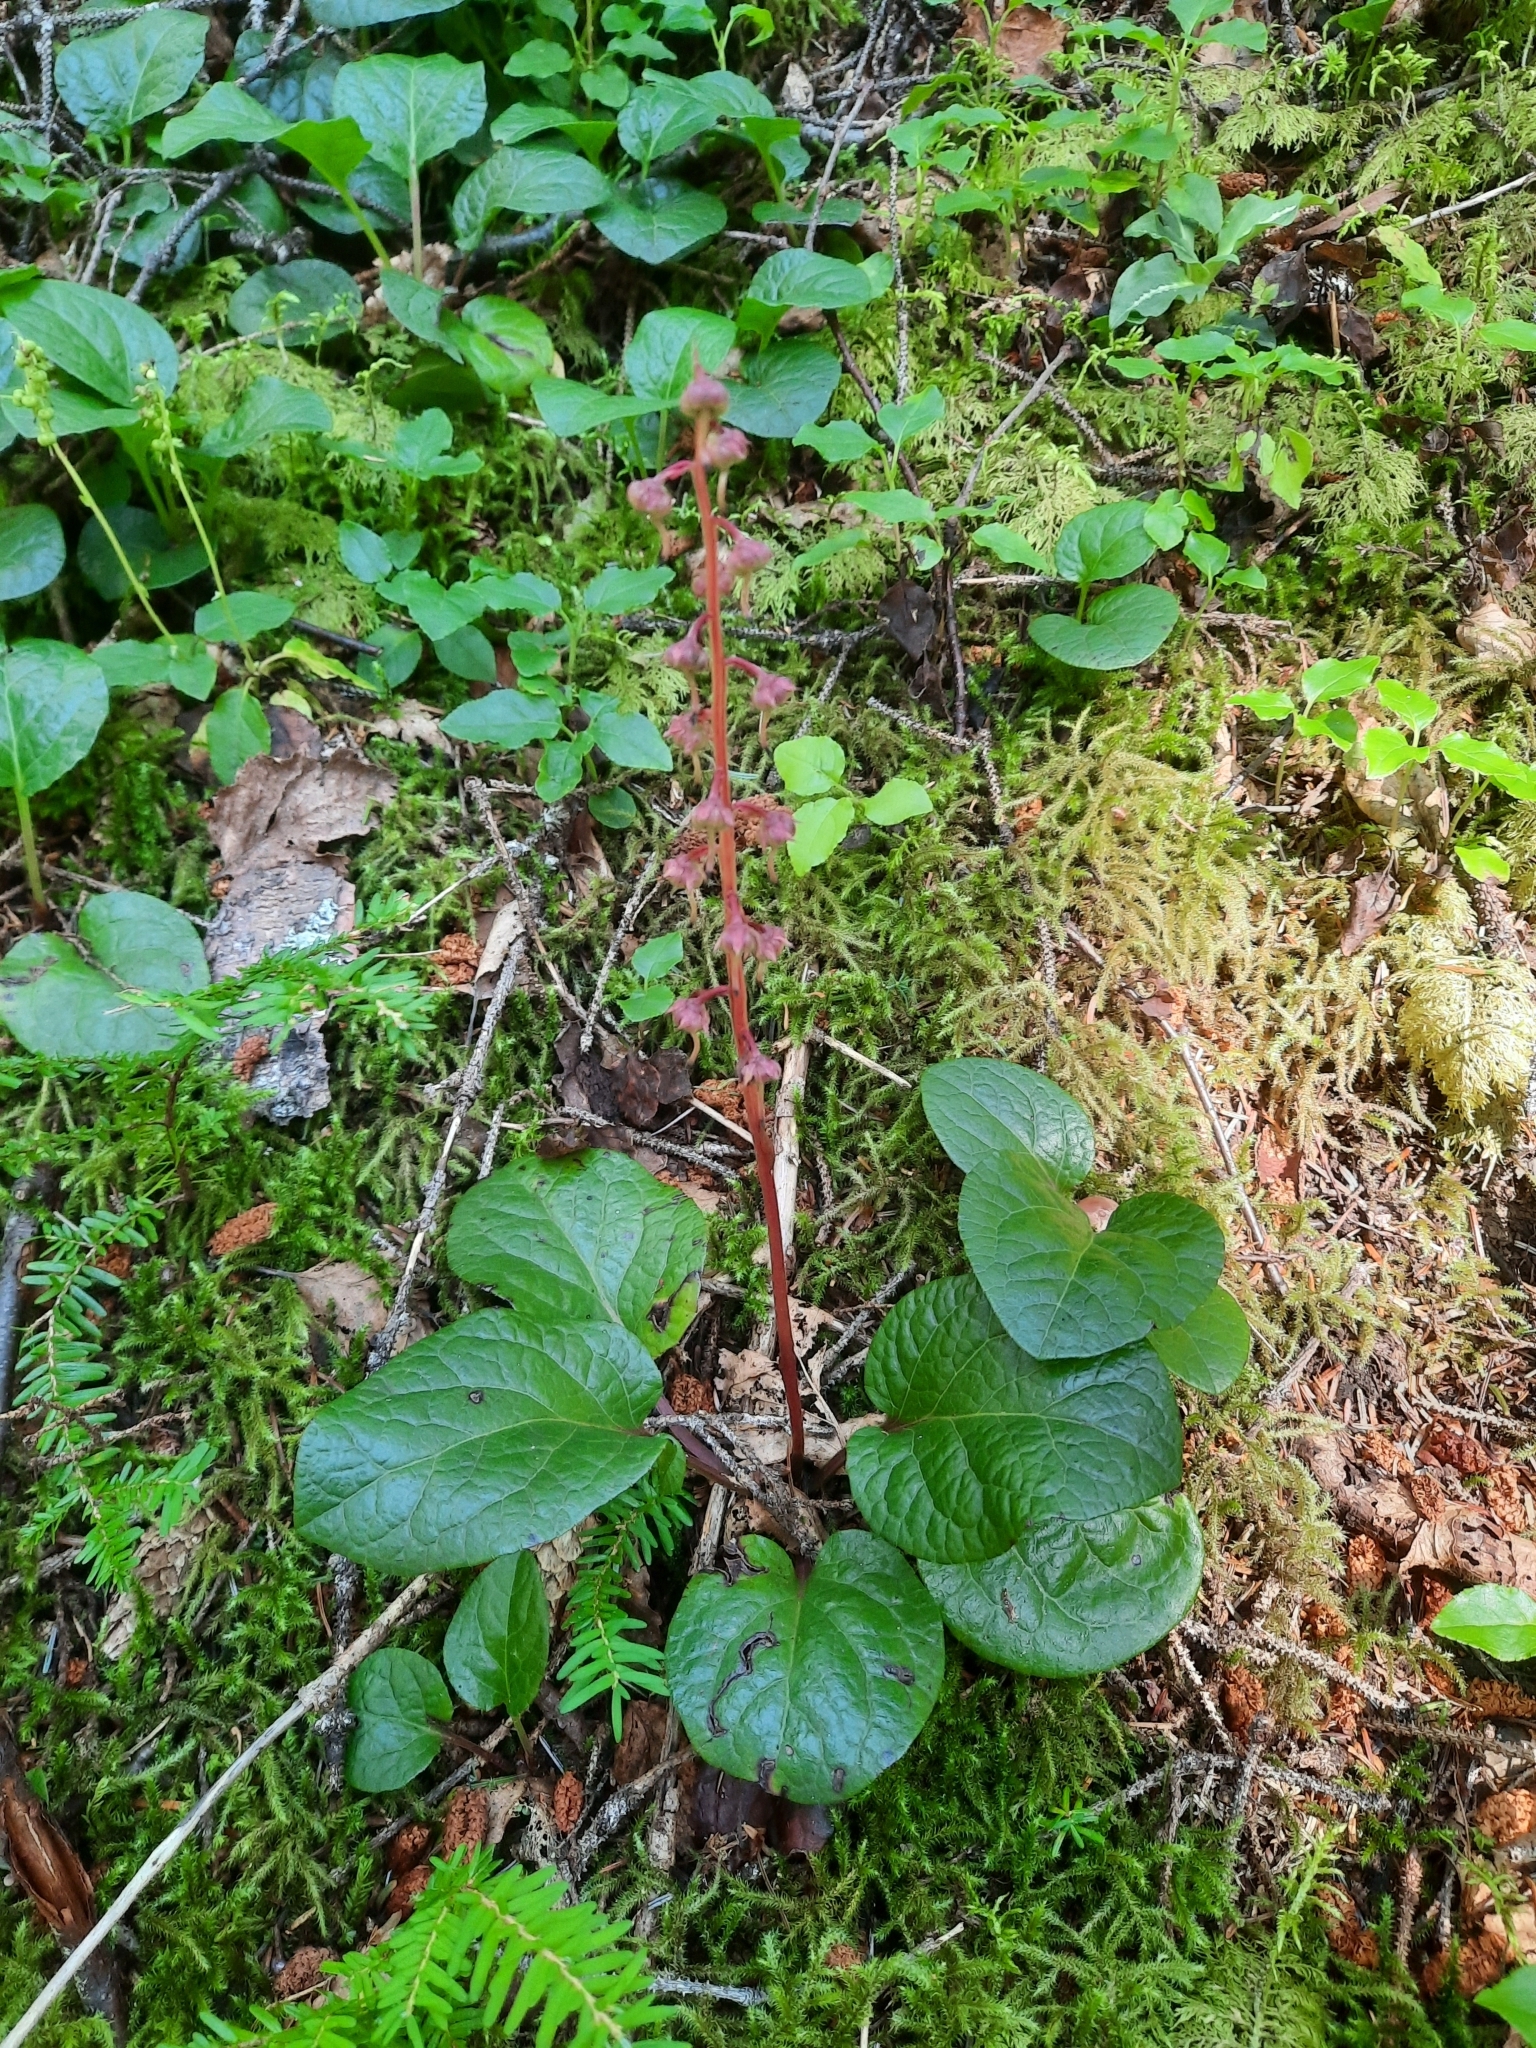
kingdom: Plantae
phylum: Tracheophyta
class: Magnoliopsida
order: Ericales
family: Ericaceae
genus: Pyrola
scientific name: Pyrola asarifolia
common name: Bog wintergreen
